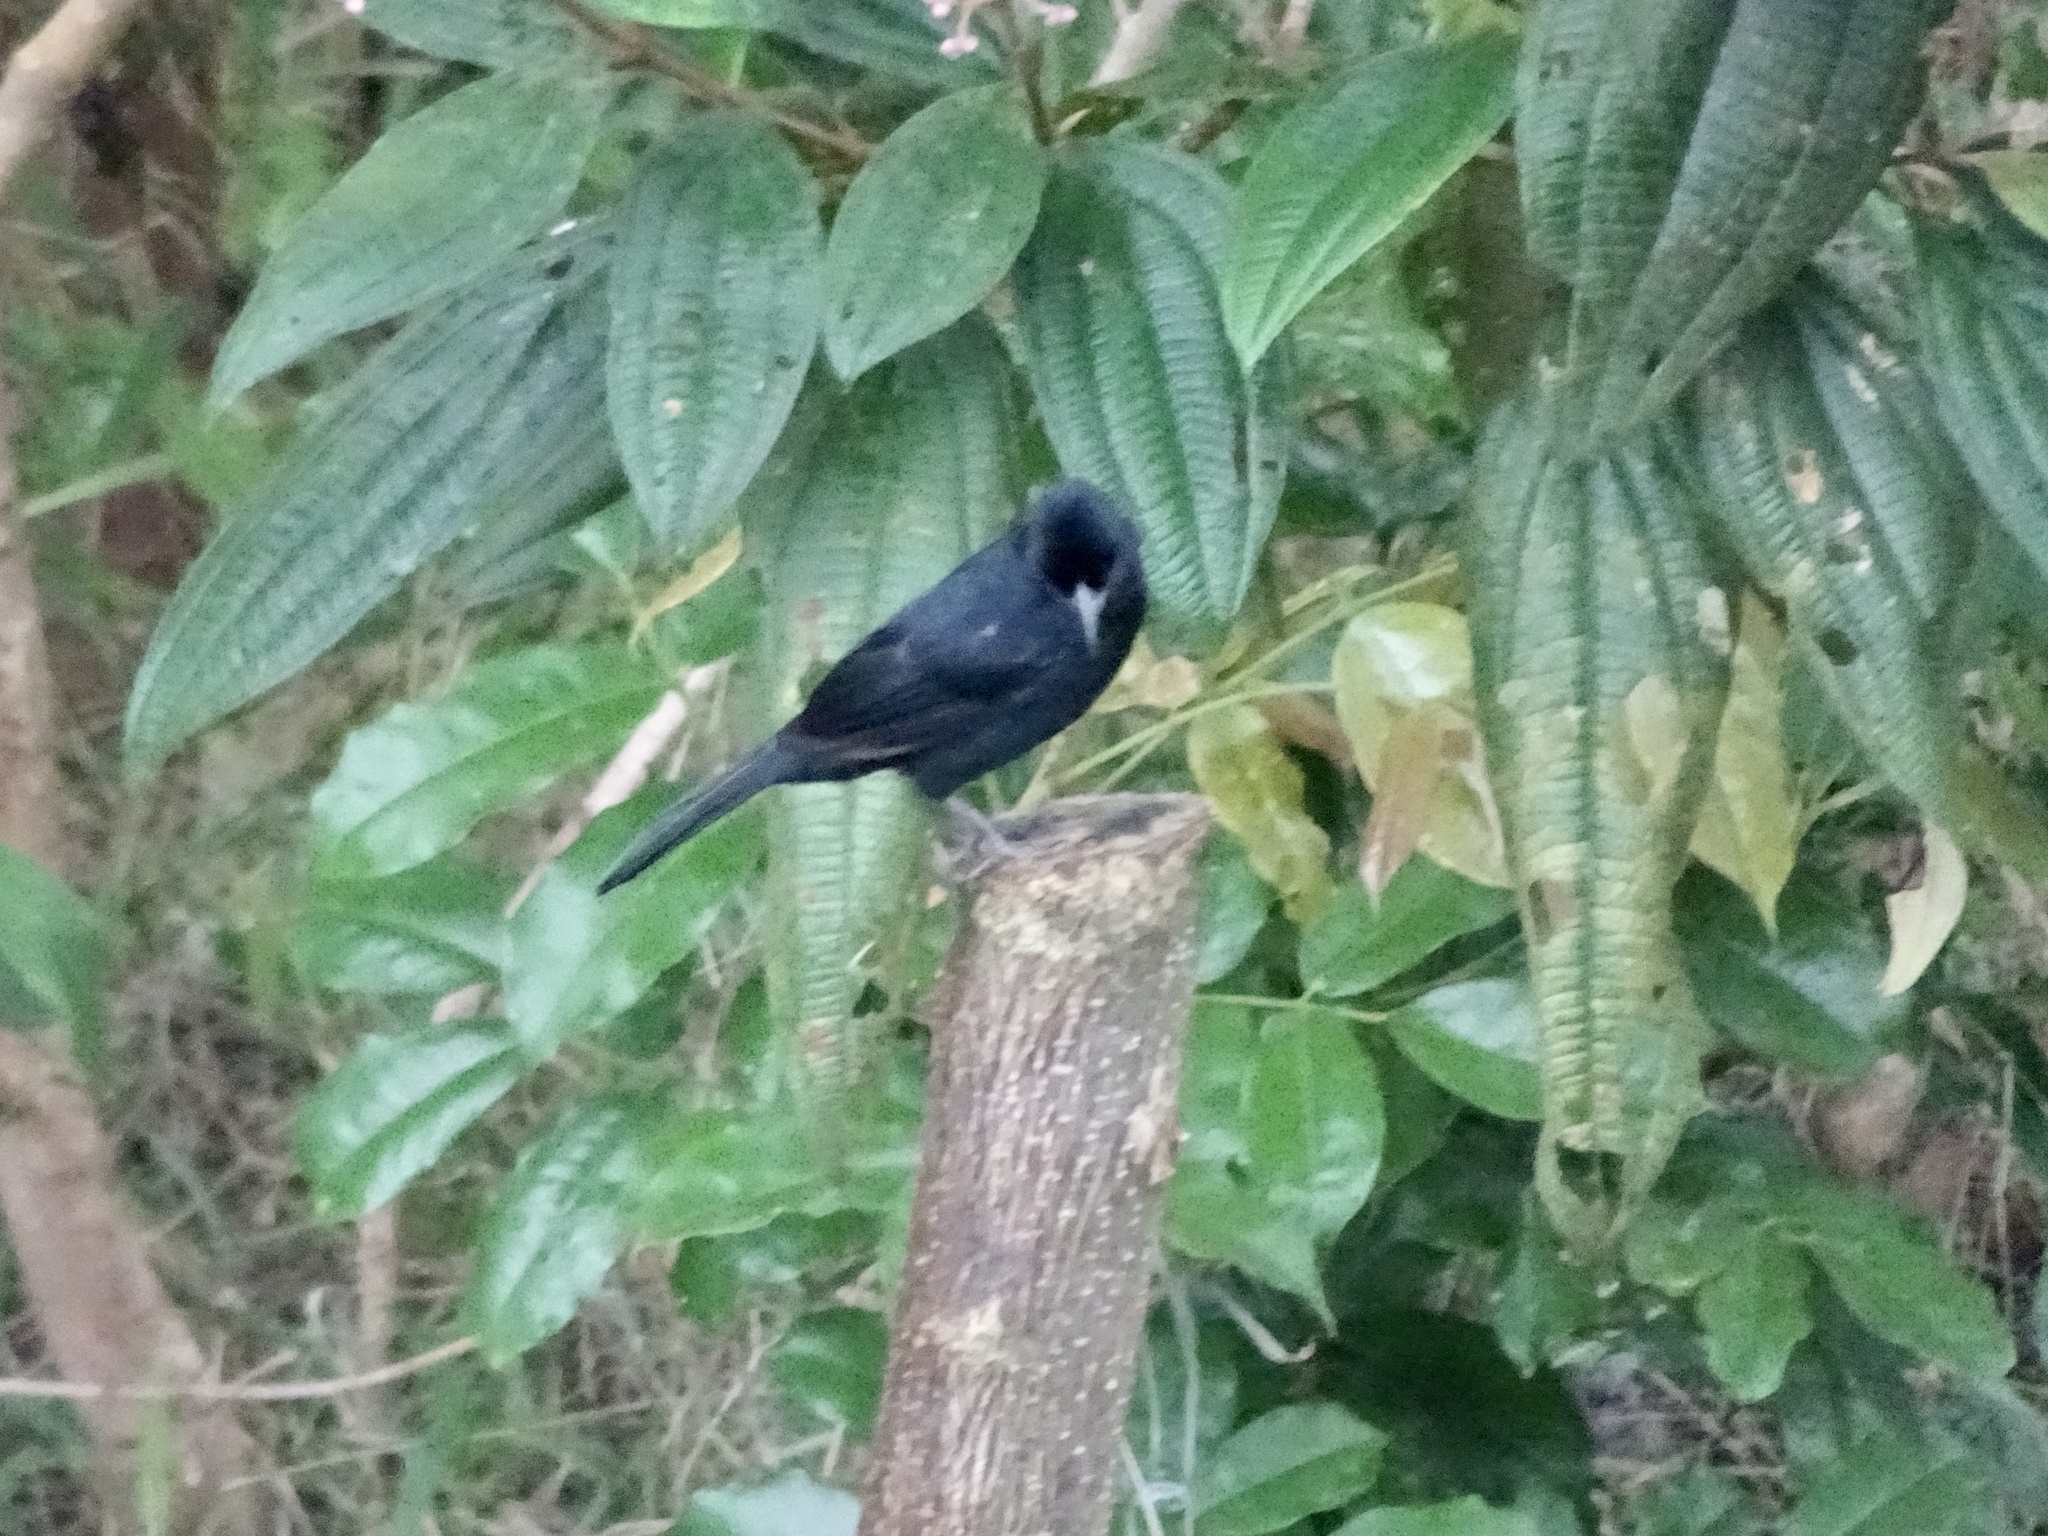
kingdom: Animalia
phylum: Chordata
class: Aves
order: Passeriformes
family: Thraupidae
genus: Tachyphonus
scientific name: Tachyphonus rufus
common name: White-lined tanager
